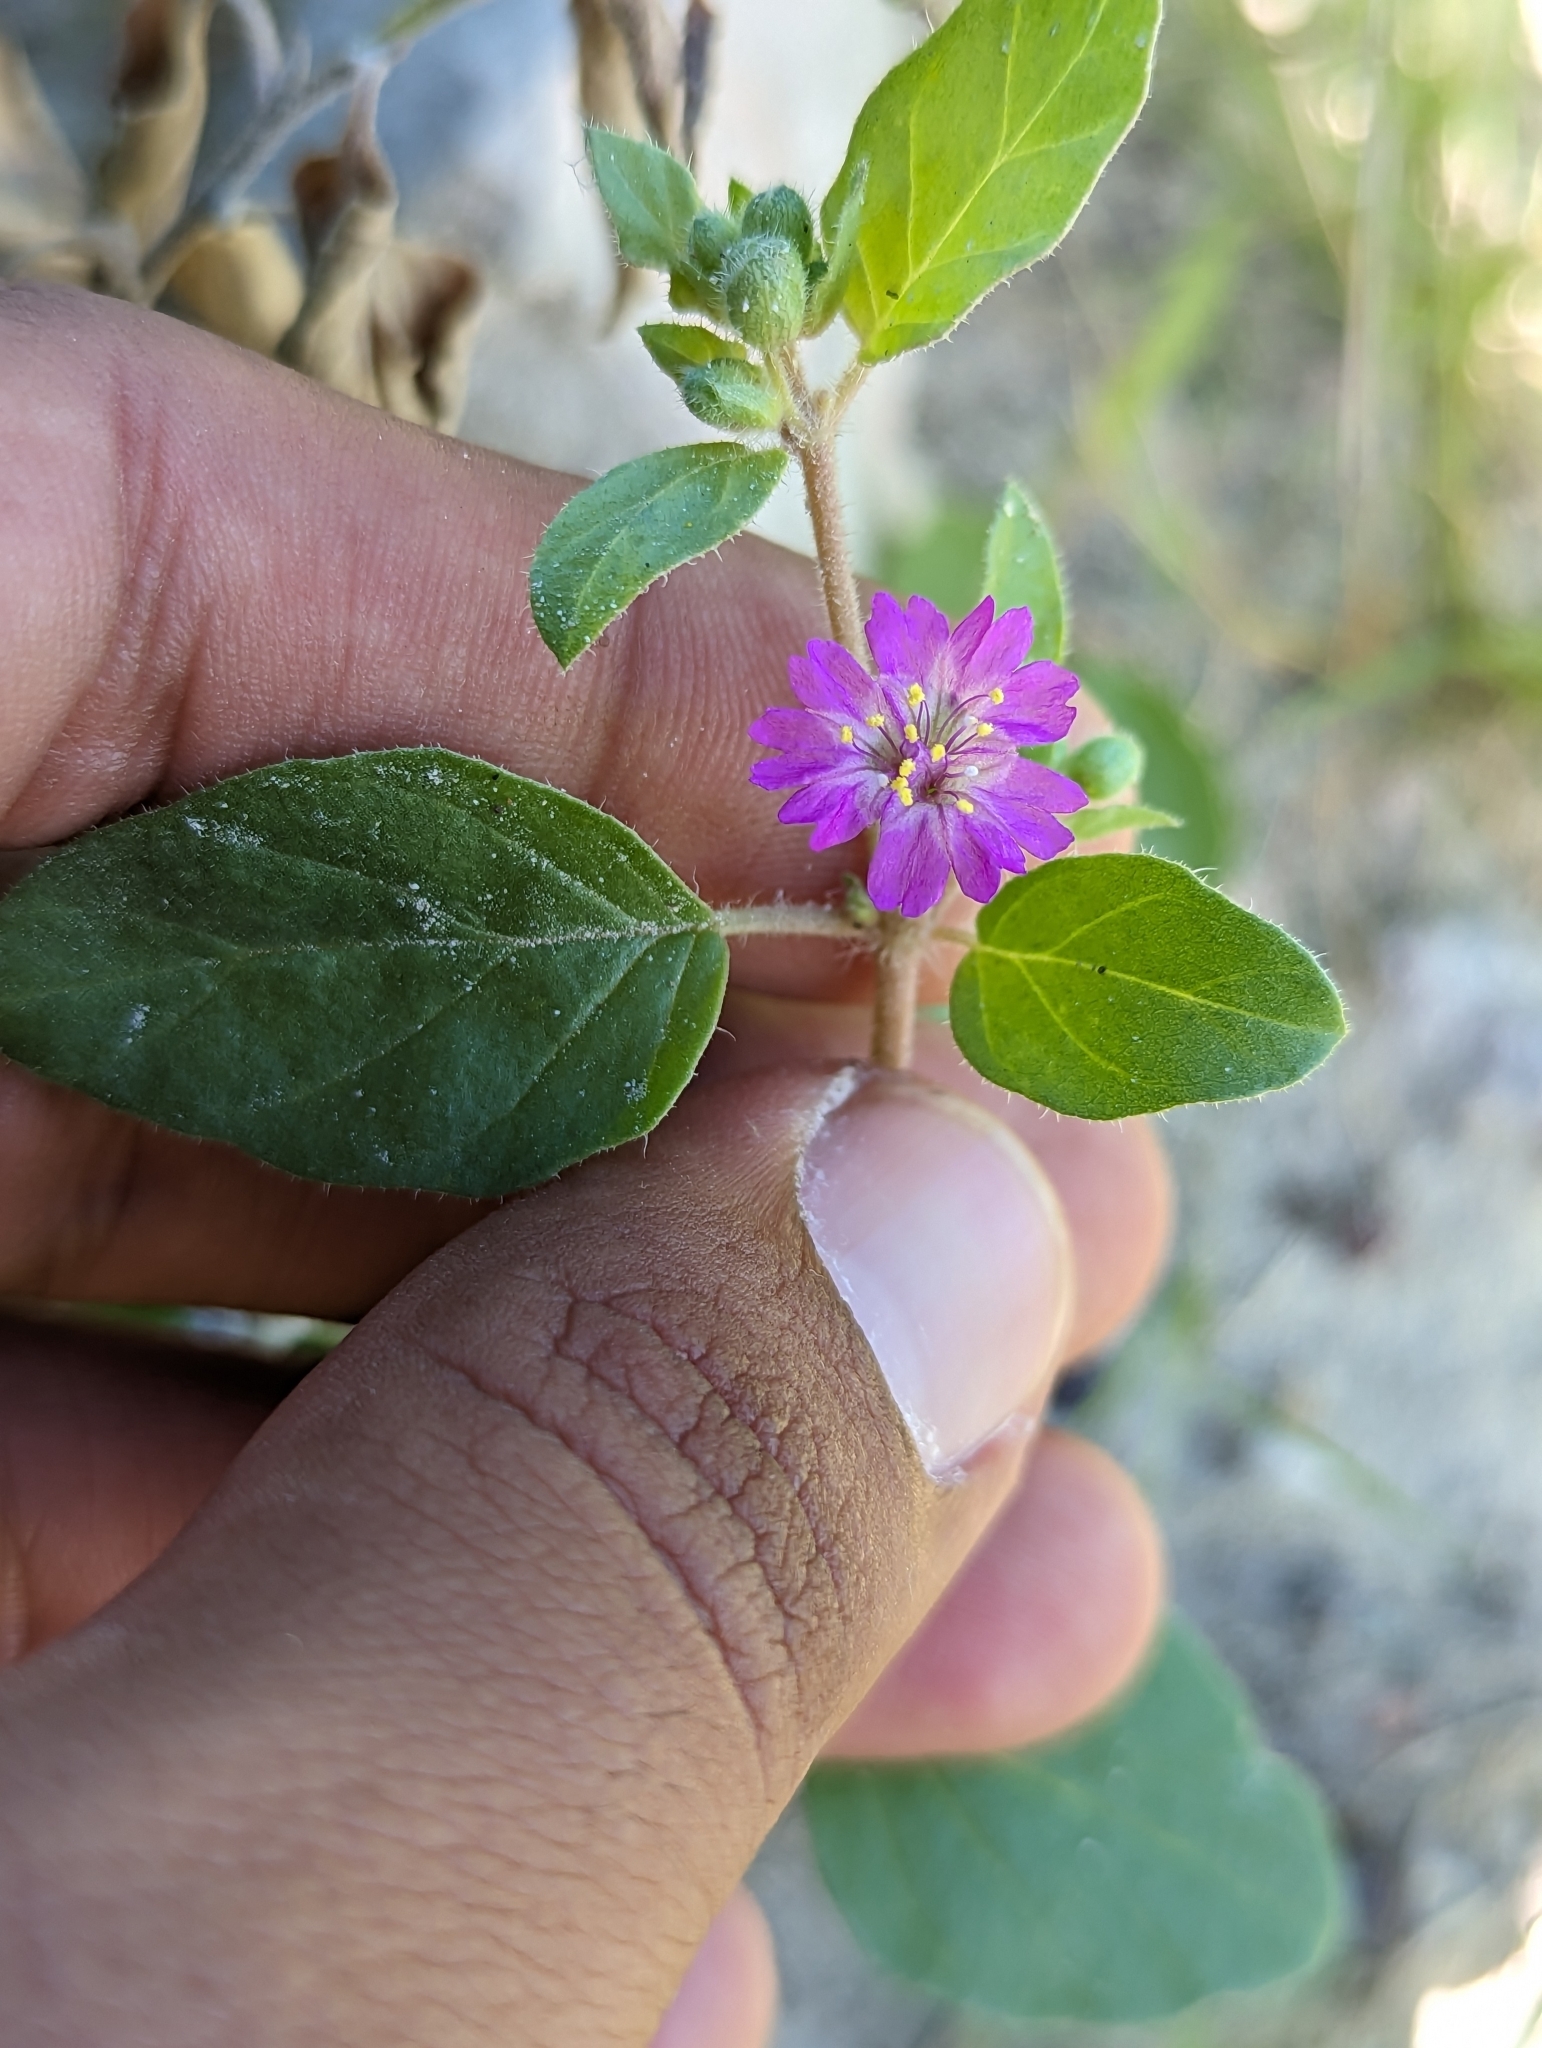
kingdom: Plantae
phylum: Tracheophyta
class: Magnoliopsida
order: Caryophyllales
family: Nyctaginaceae
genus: Allionia
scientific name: Allionia incarnata
